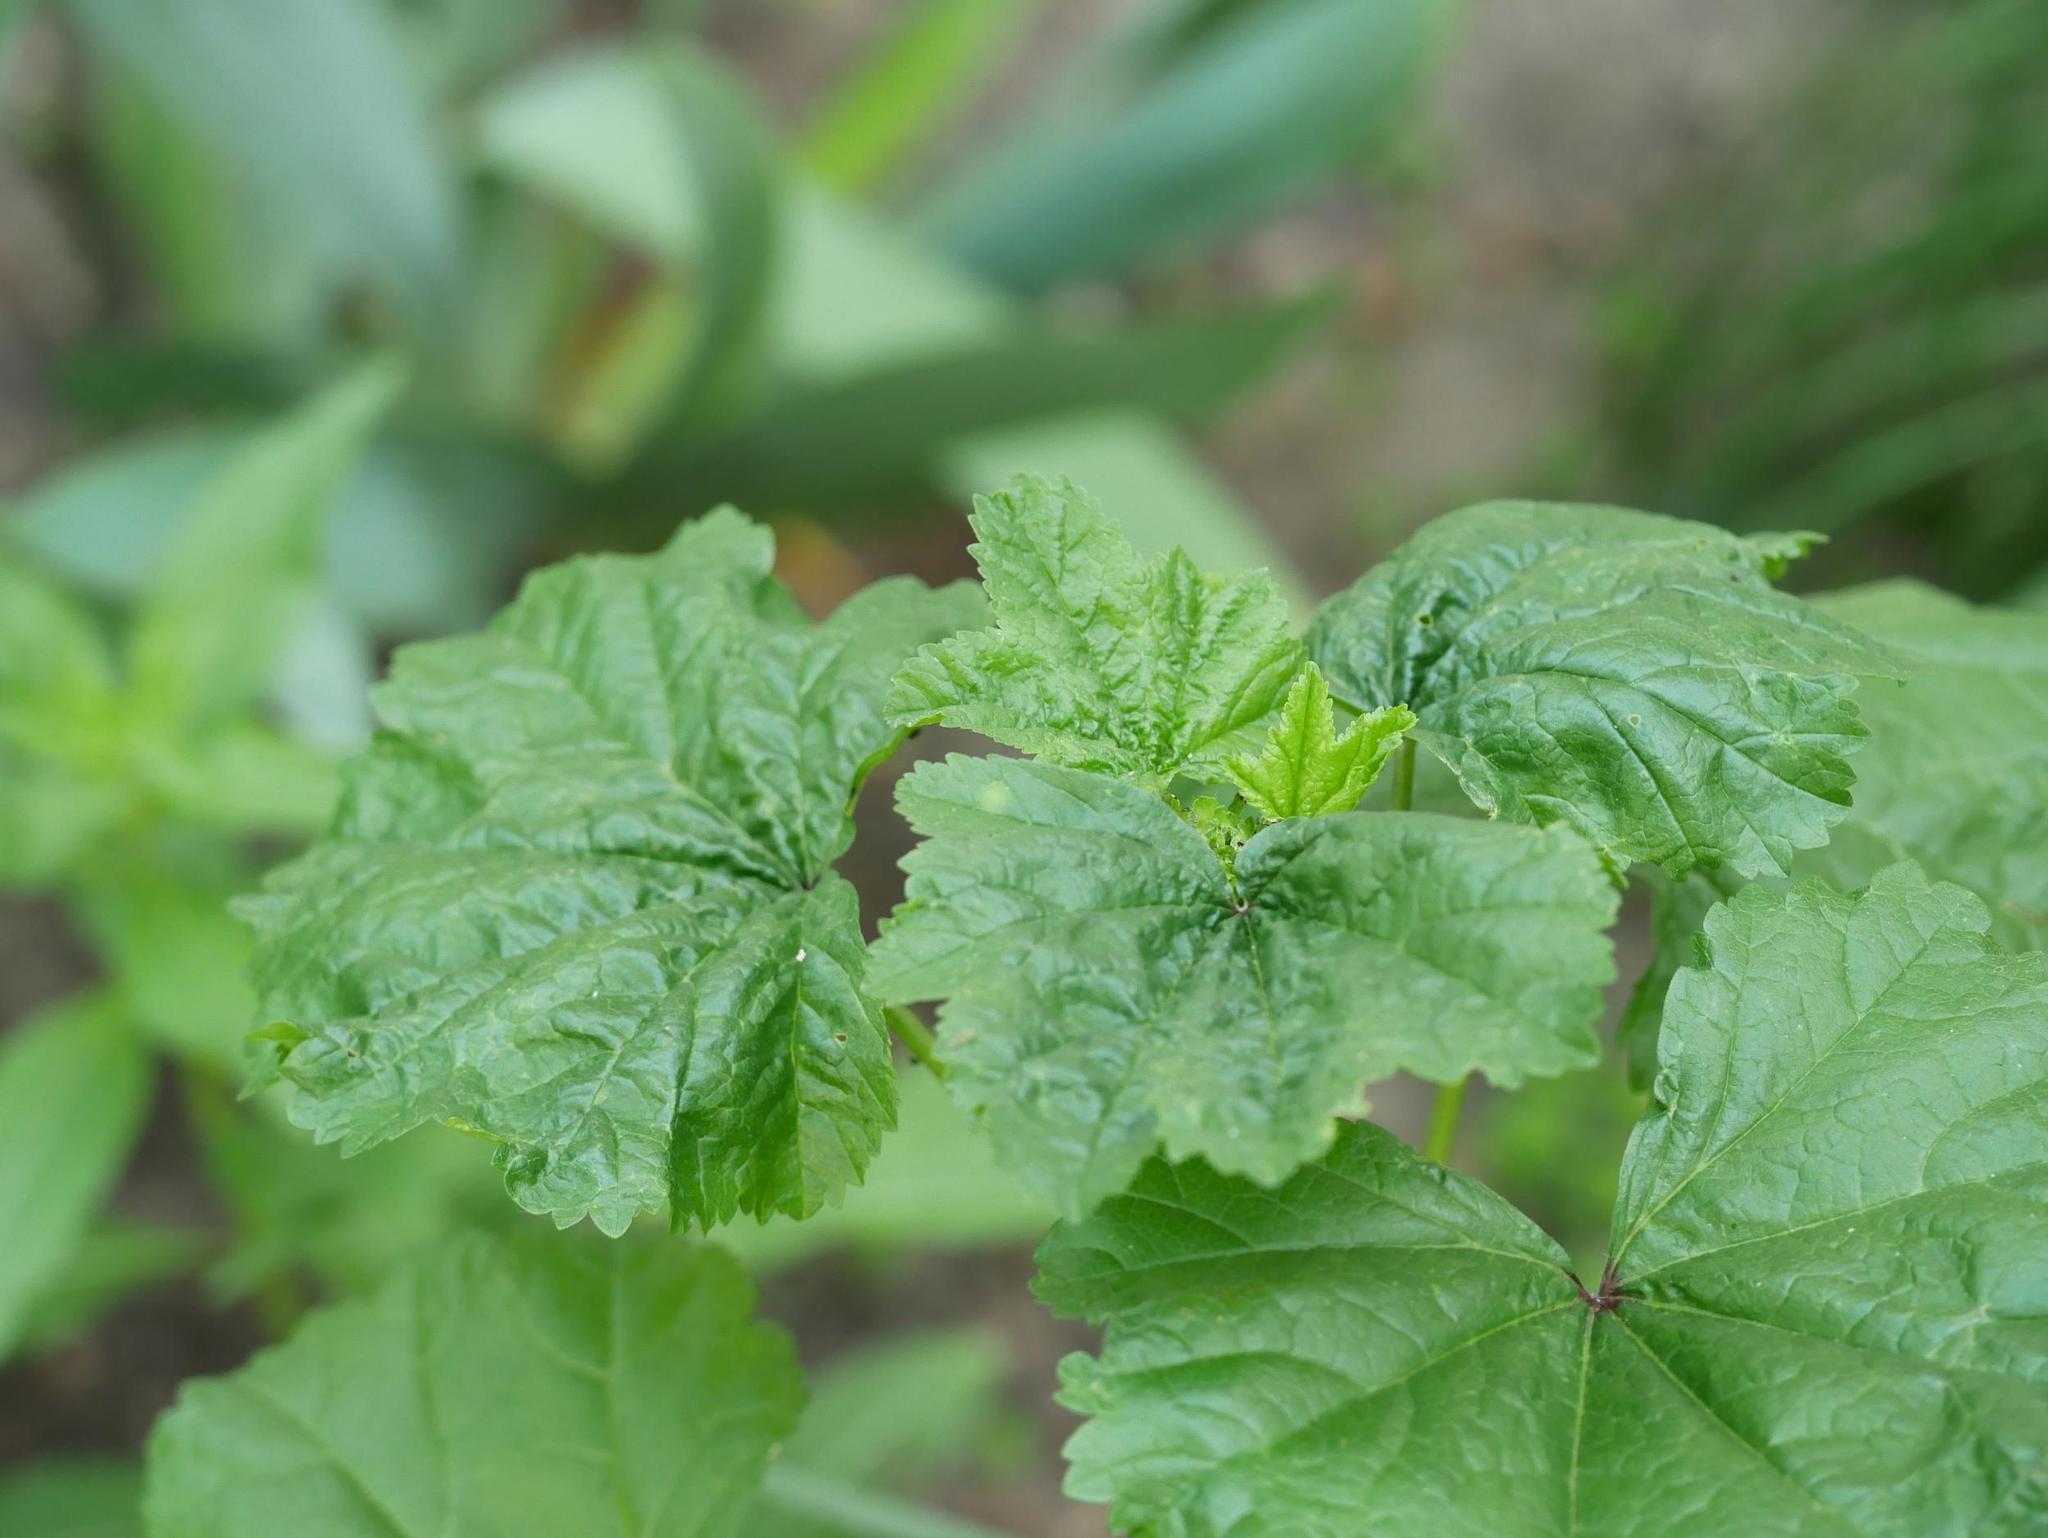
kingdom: Plantae
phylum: Tracheophyta
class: Magnoliopsida
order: Malvales
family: Malvaceae
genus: Malva
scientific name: Malva sylvestris
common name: Common mallow
